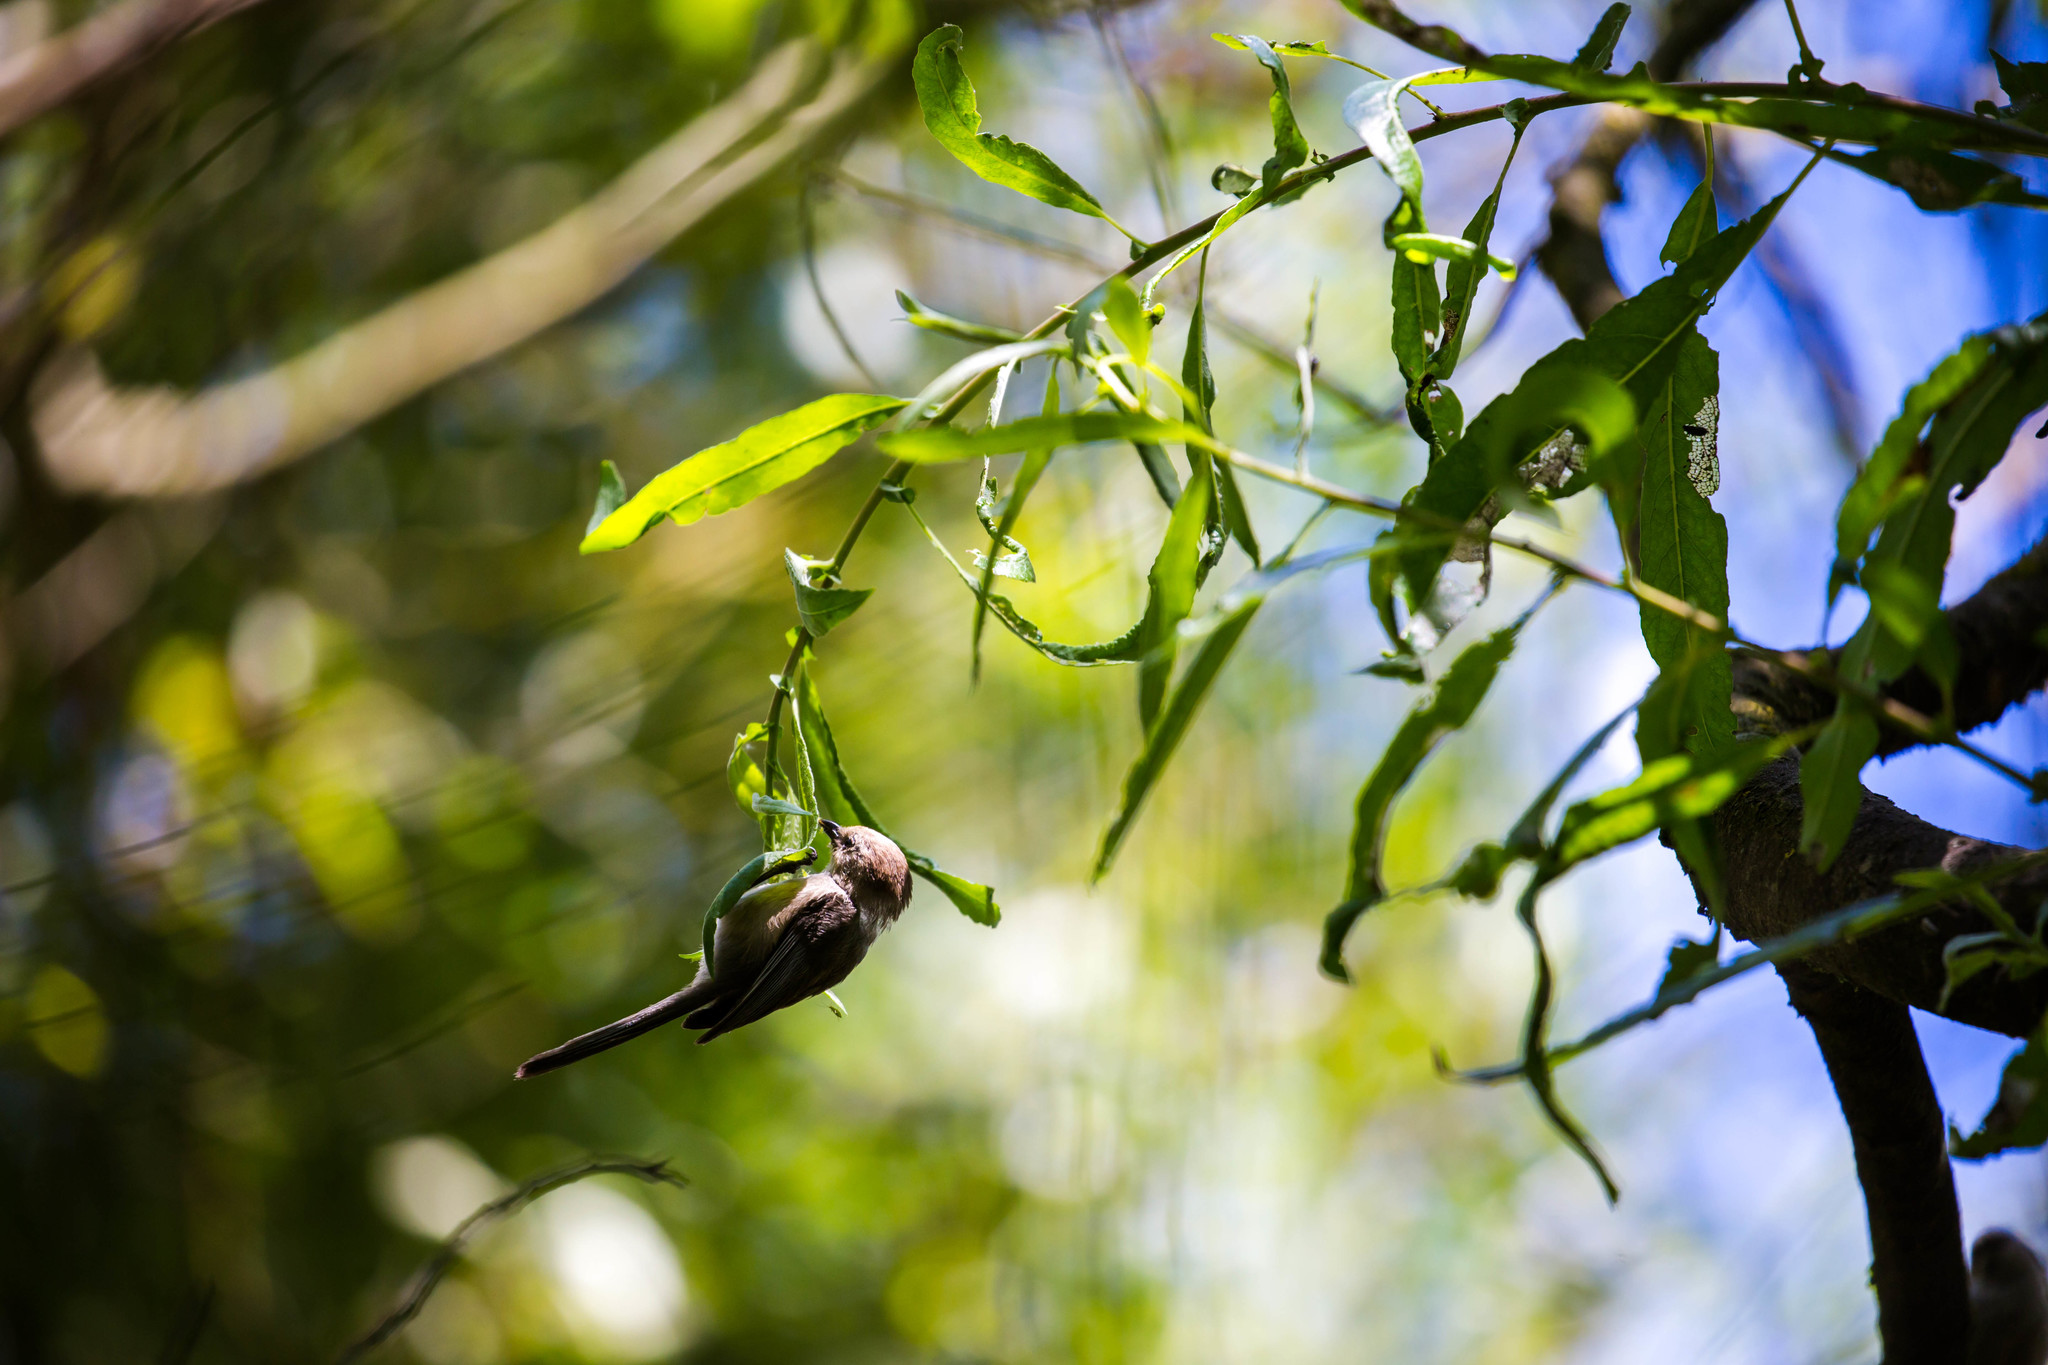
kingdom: Animalia
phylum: Chordata
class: Aves
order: Passeriformes
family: Aegithalidae
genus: Psaltriparus
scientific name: Psaltriparus minimus
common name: American bushtit
